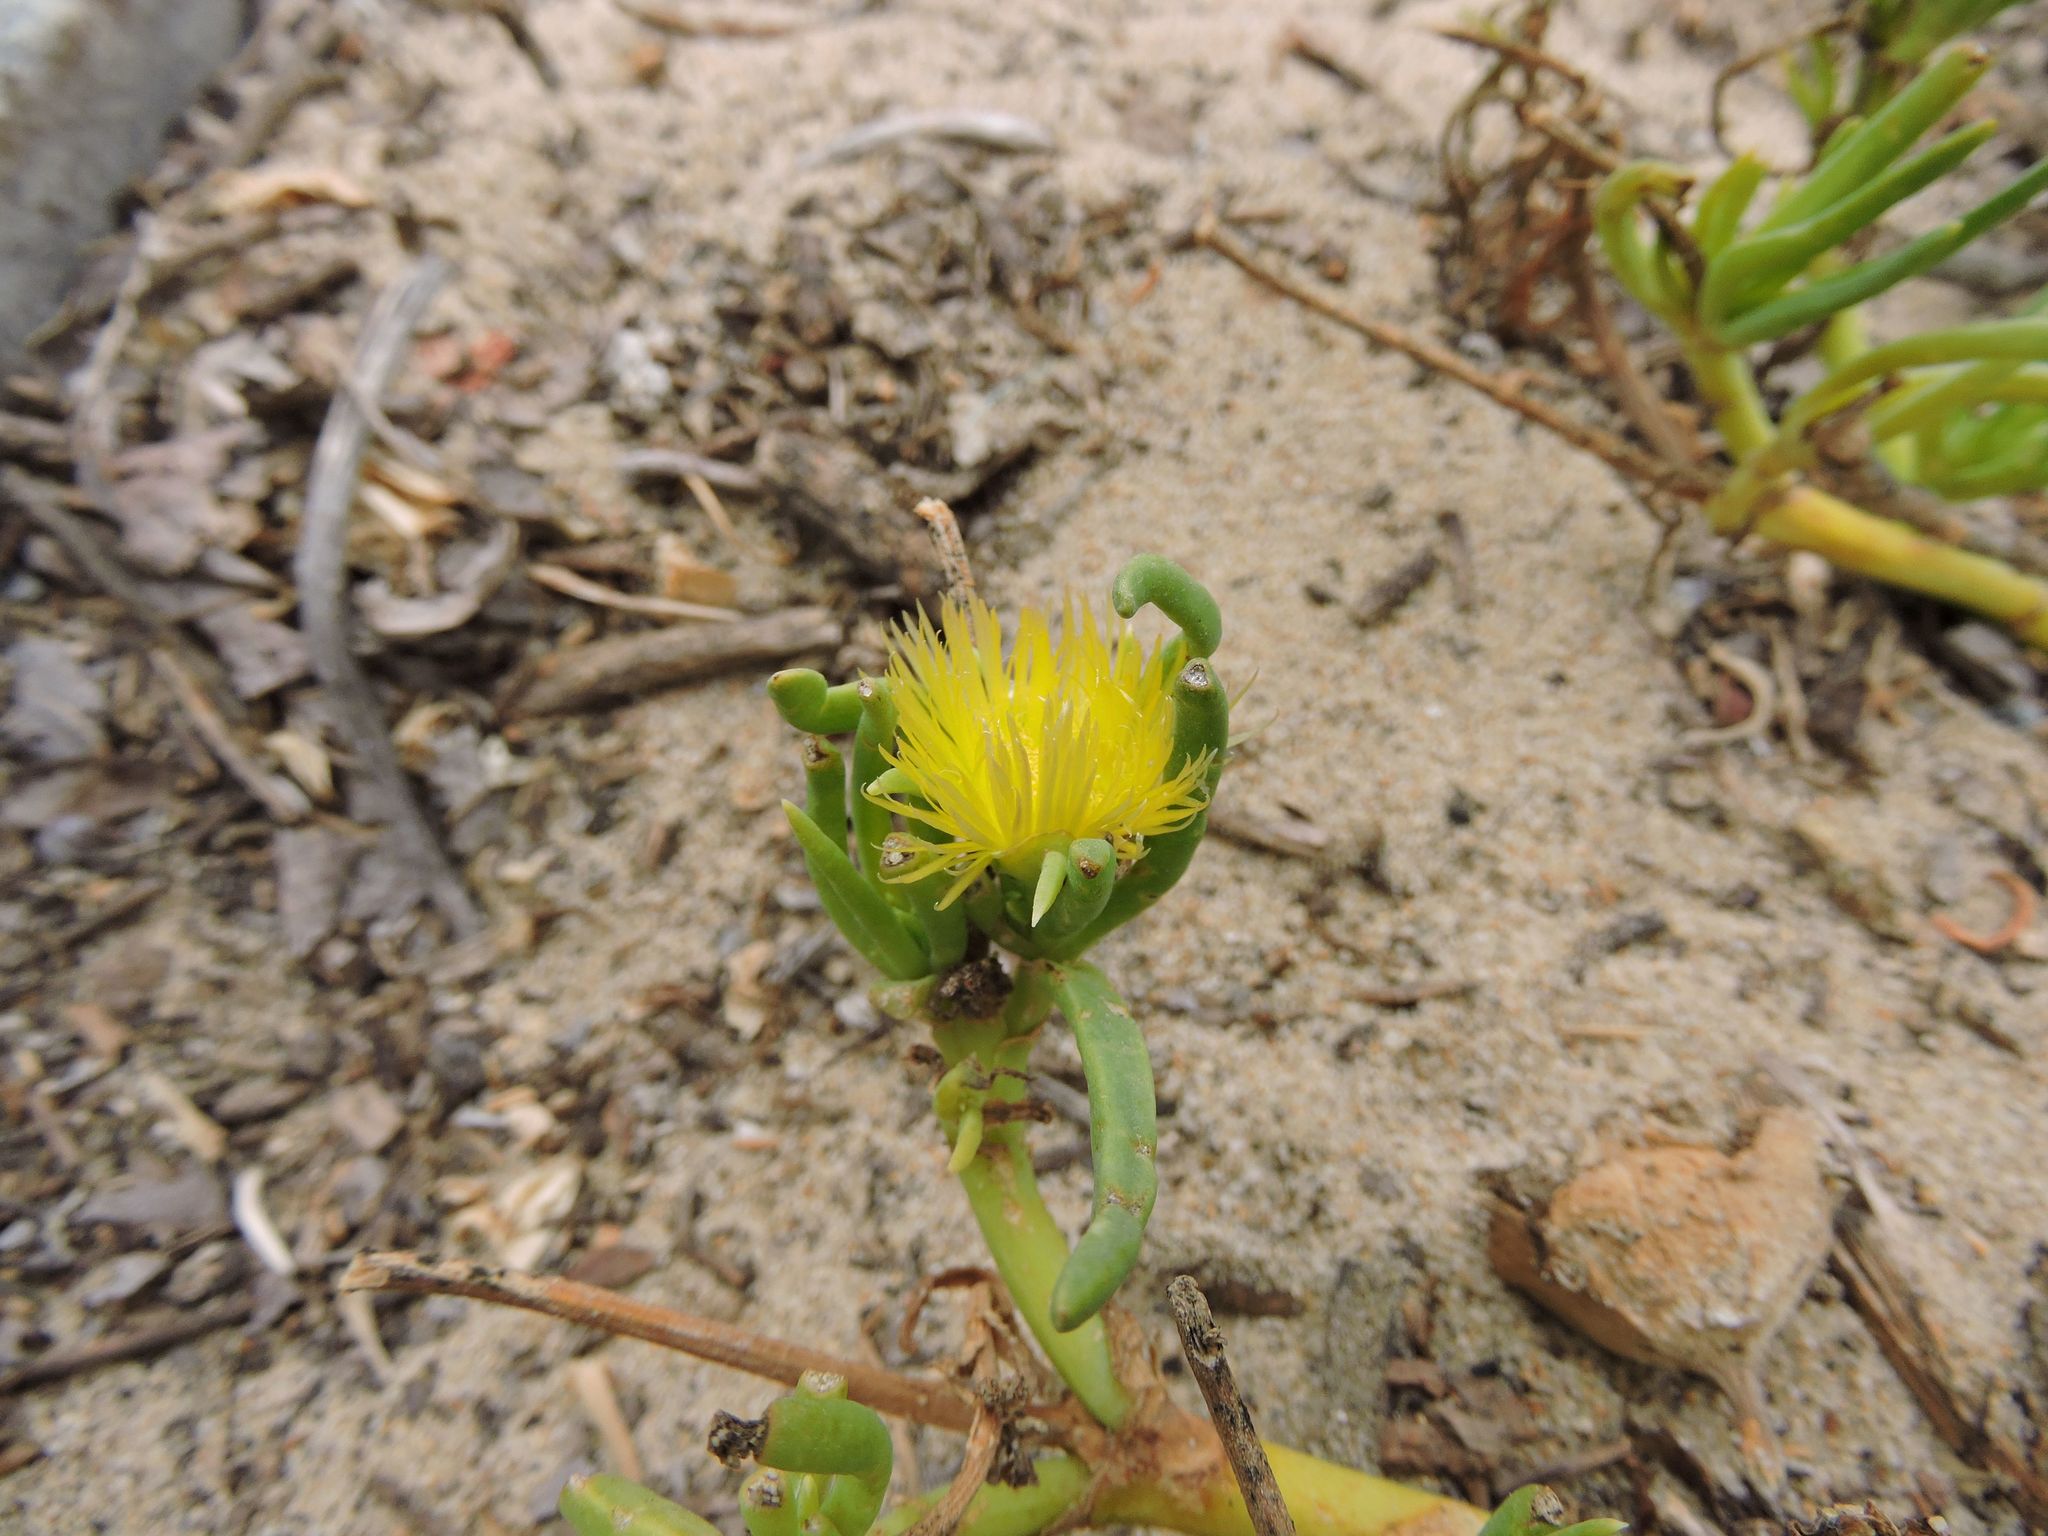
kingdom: Plantae
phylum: Tracheophyta
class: Magnoliopsida
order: Caryophyllales
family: Aizoaceae
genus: Conicosia
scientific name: Conicosia pugioniformis
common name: Narrow-leaved iceplant
